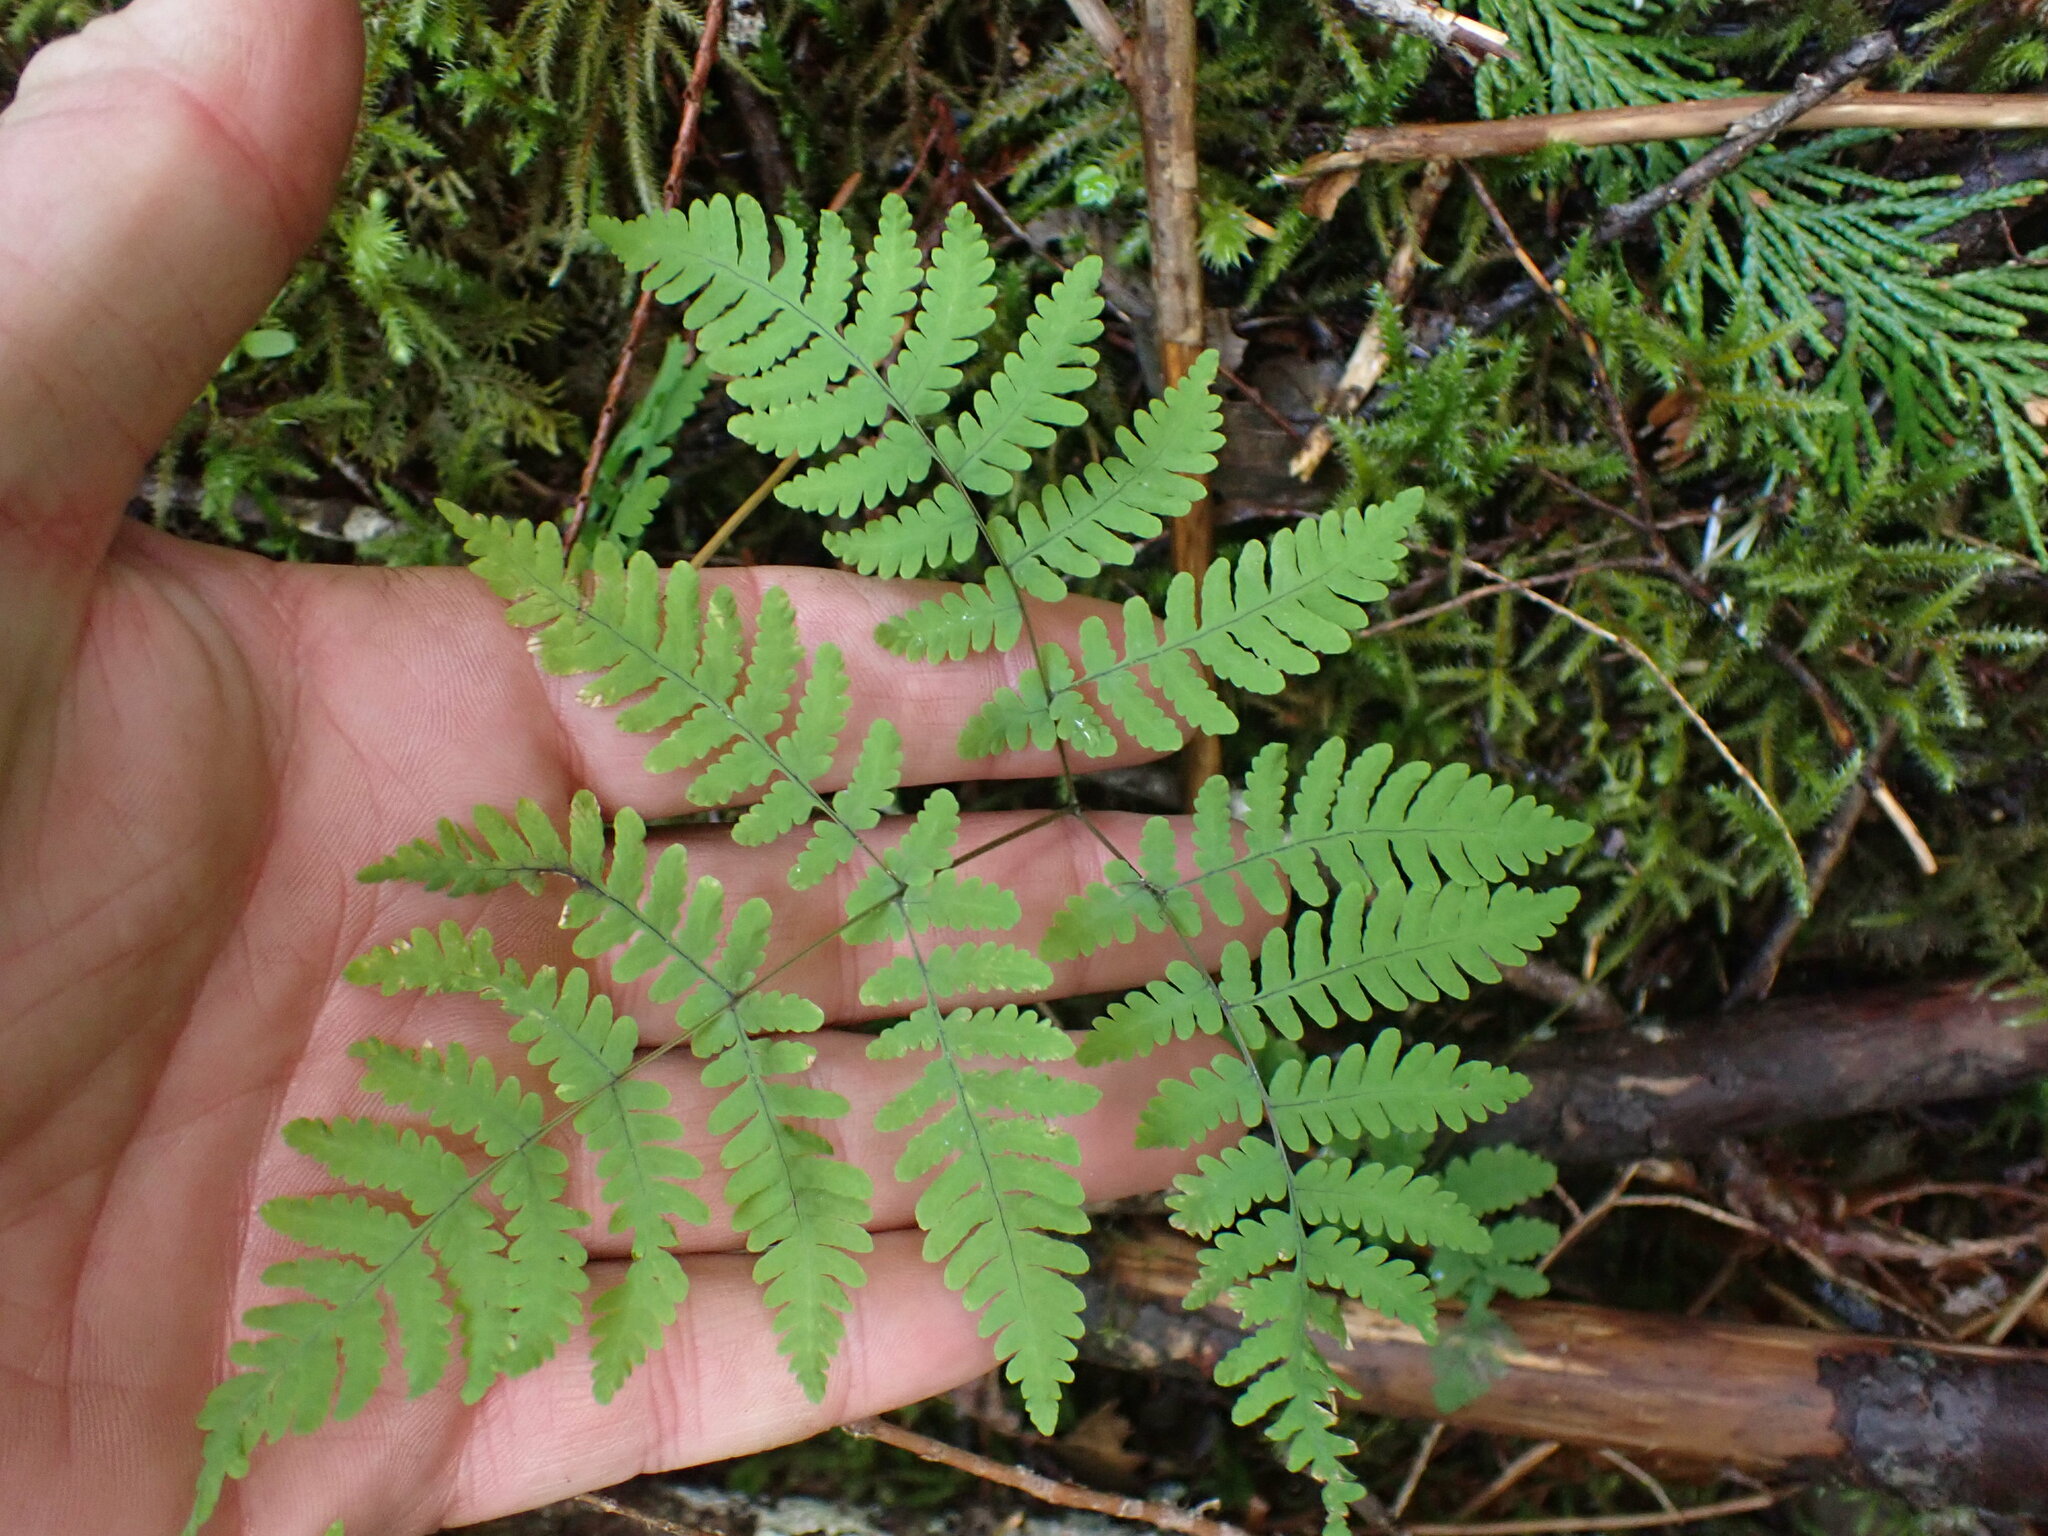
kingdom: Plantae
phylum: Tracheophyta
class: Polypodiopsida
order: Polypodiales
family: Cystopteridaceae
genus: Gymnocarpium
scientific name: Gymnocarpium disjunctum
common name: Western oak fern
